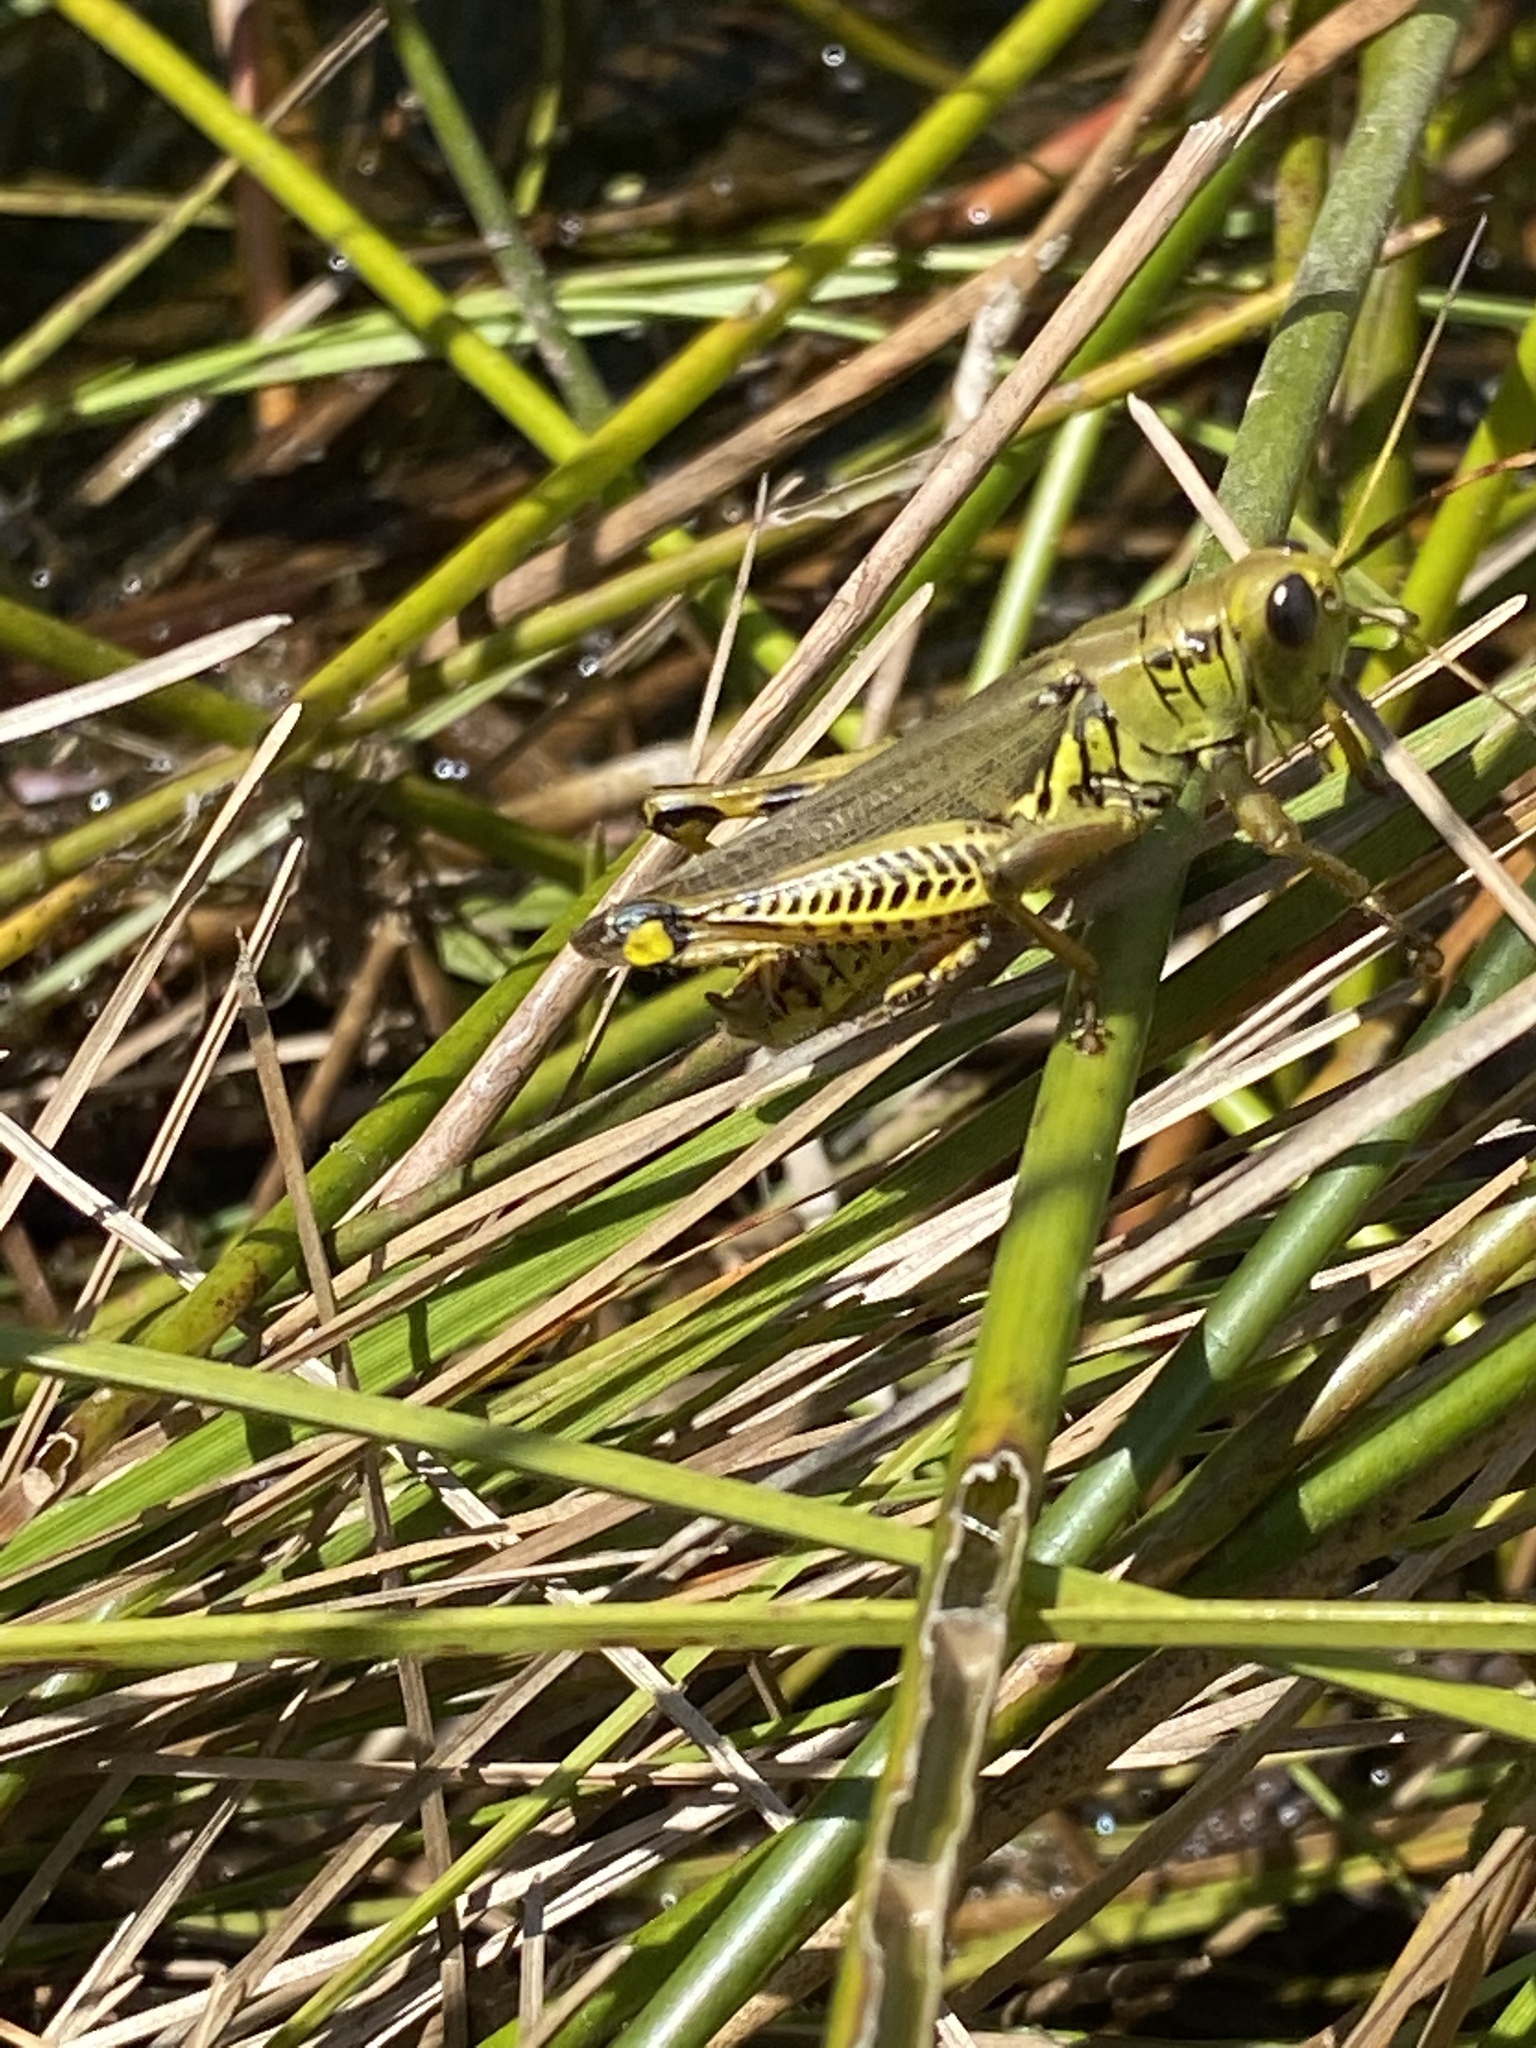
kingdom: Animalia
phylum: Arthropoda
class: Insecta
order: Orthoptera
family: Acrididae
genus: Melanoplus
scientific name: Melanoplus differentialis
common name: Differential grasshopper
